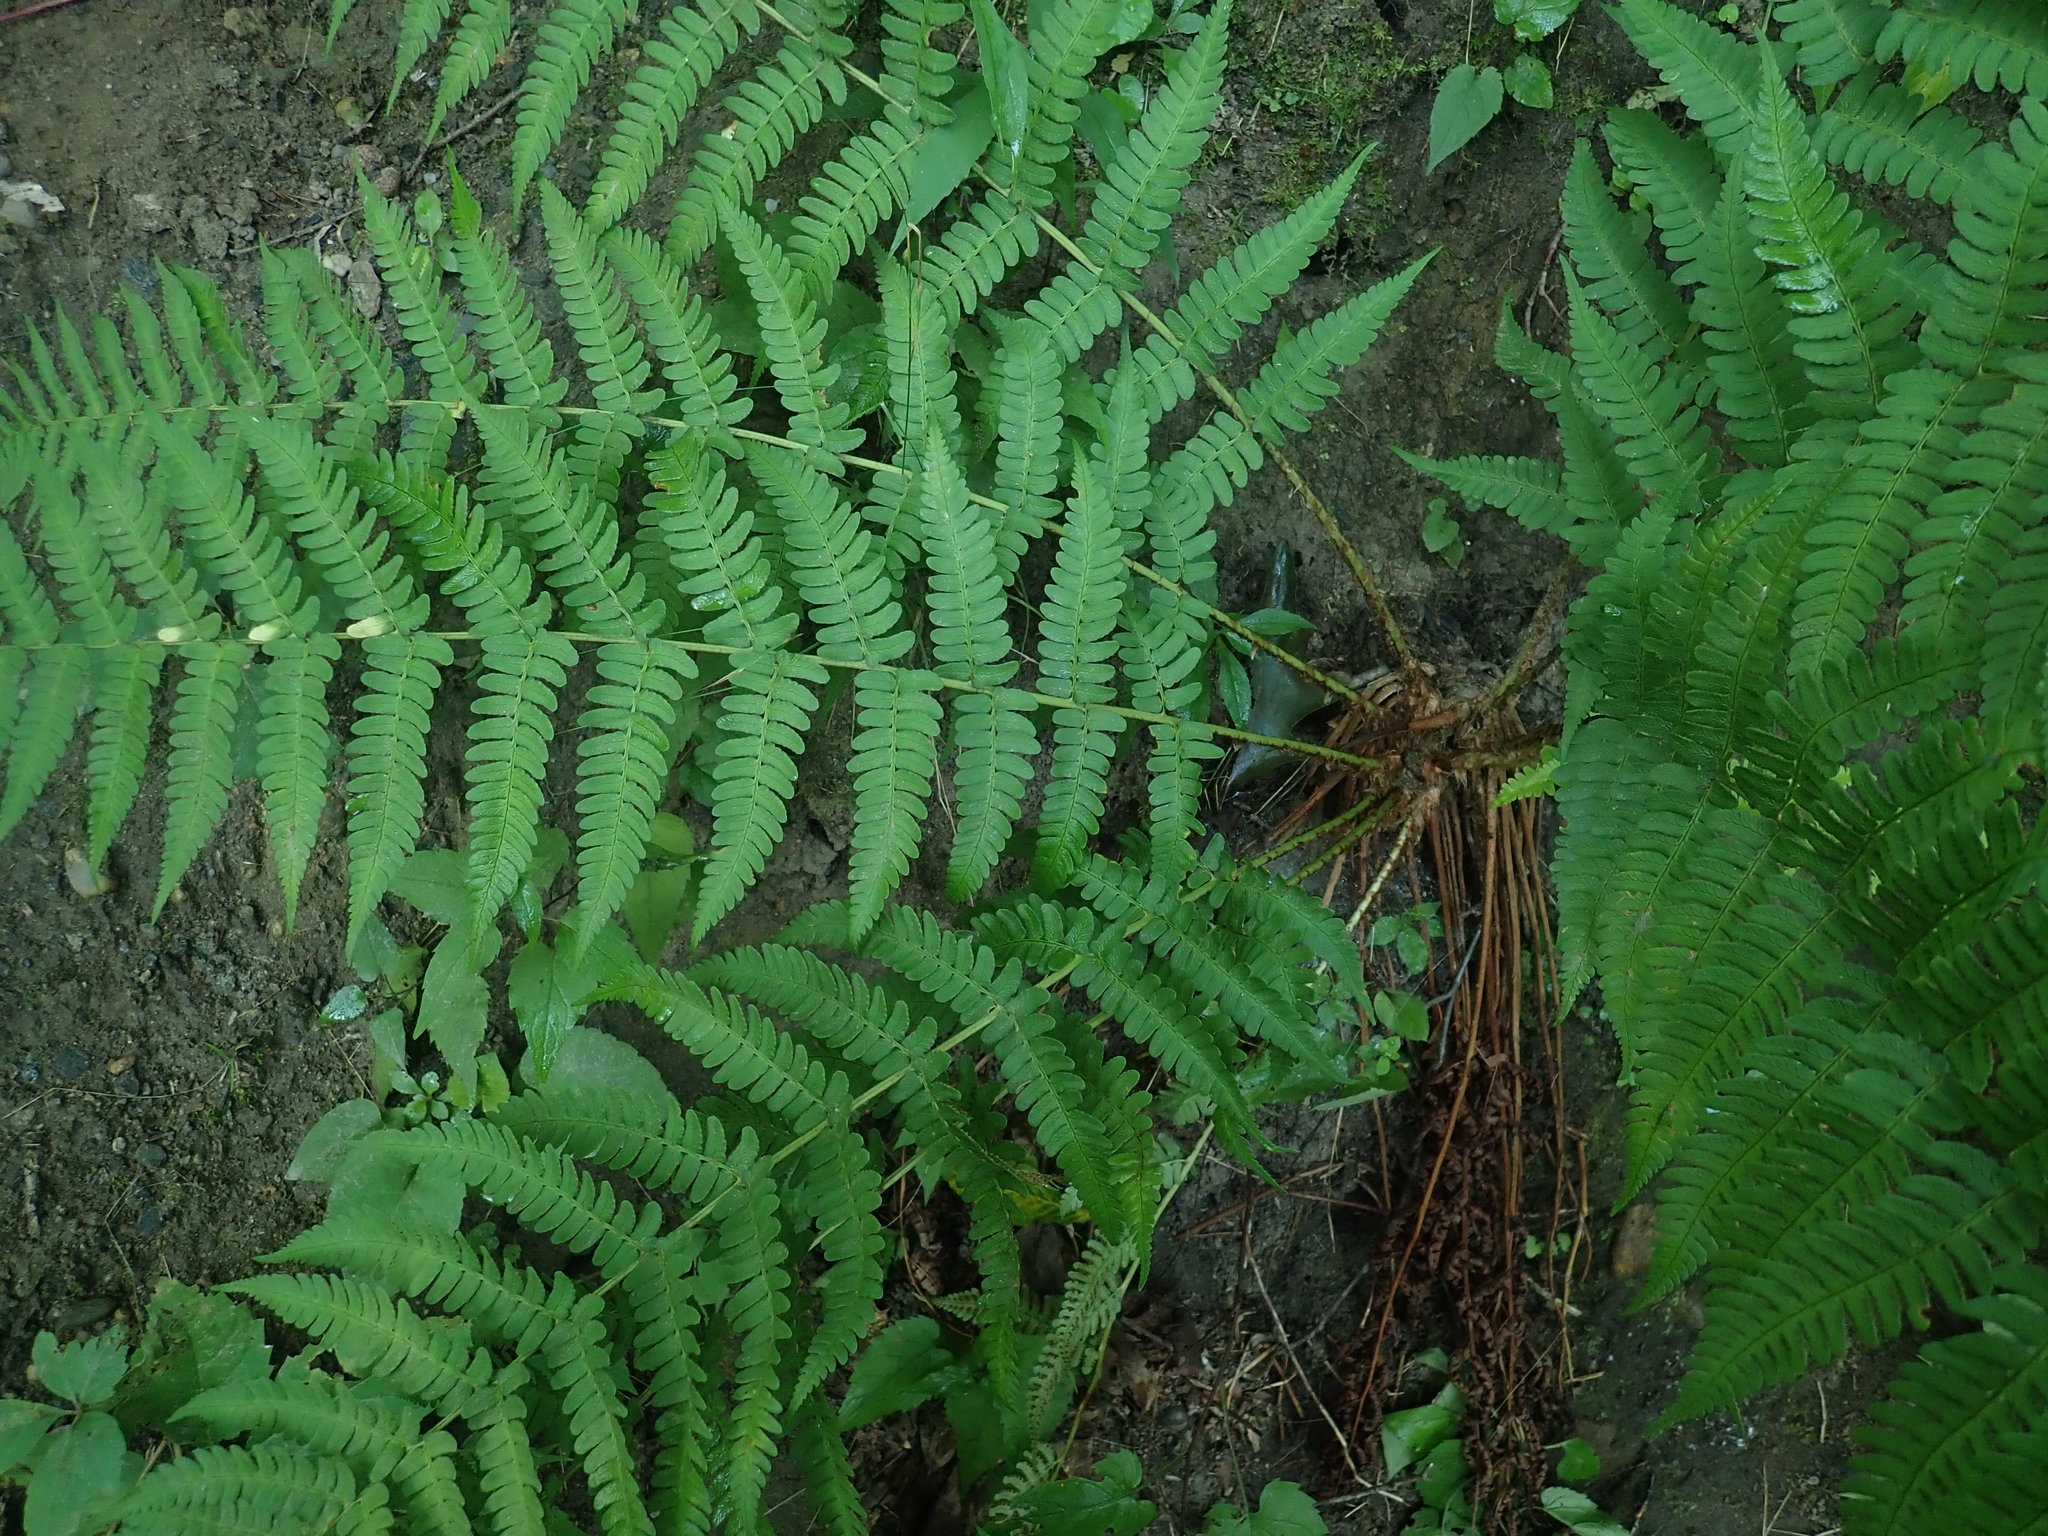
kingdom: Plantae
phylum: Tracheophyta
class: Polypodiopsida
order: Polypodiales
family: Dryopteridaceae
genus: Dryopteris
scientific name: Dryopteris marginalis
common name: Marginal wood fern
